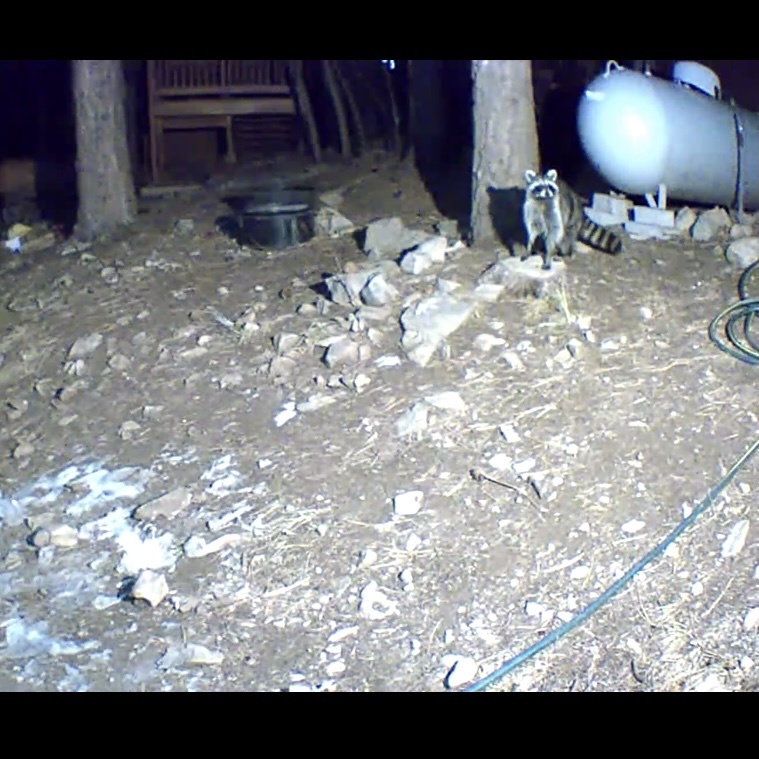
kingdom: Animalia
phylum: Chordata
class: Mammalia
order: Carnivora
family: Procyonidae
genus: Procyon
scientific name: Procyon lotor
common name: Raccoon
